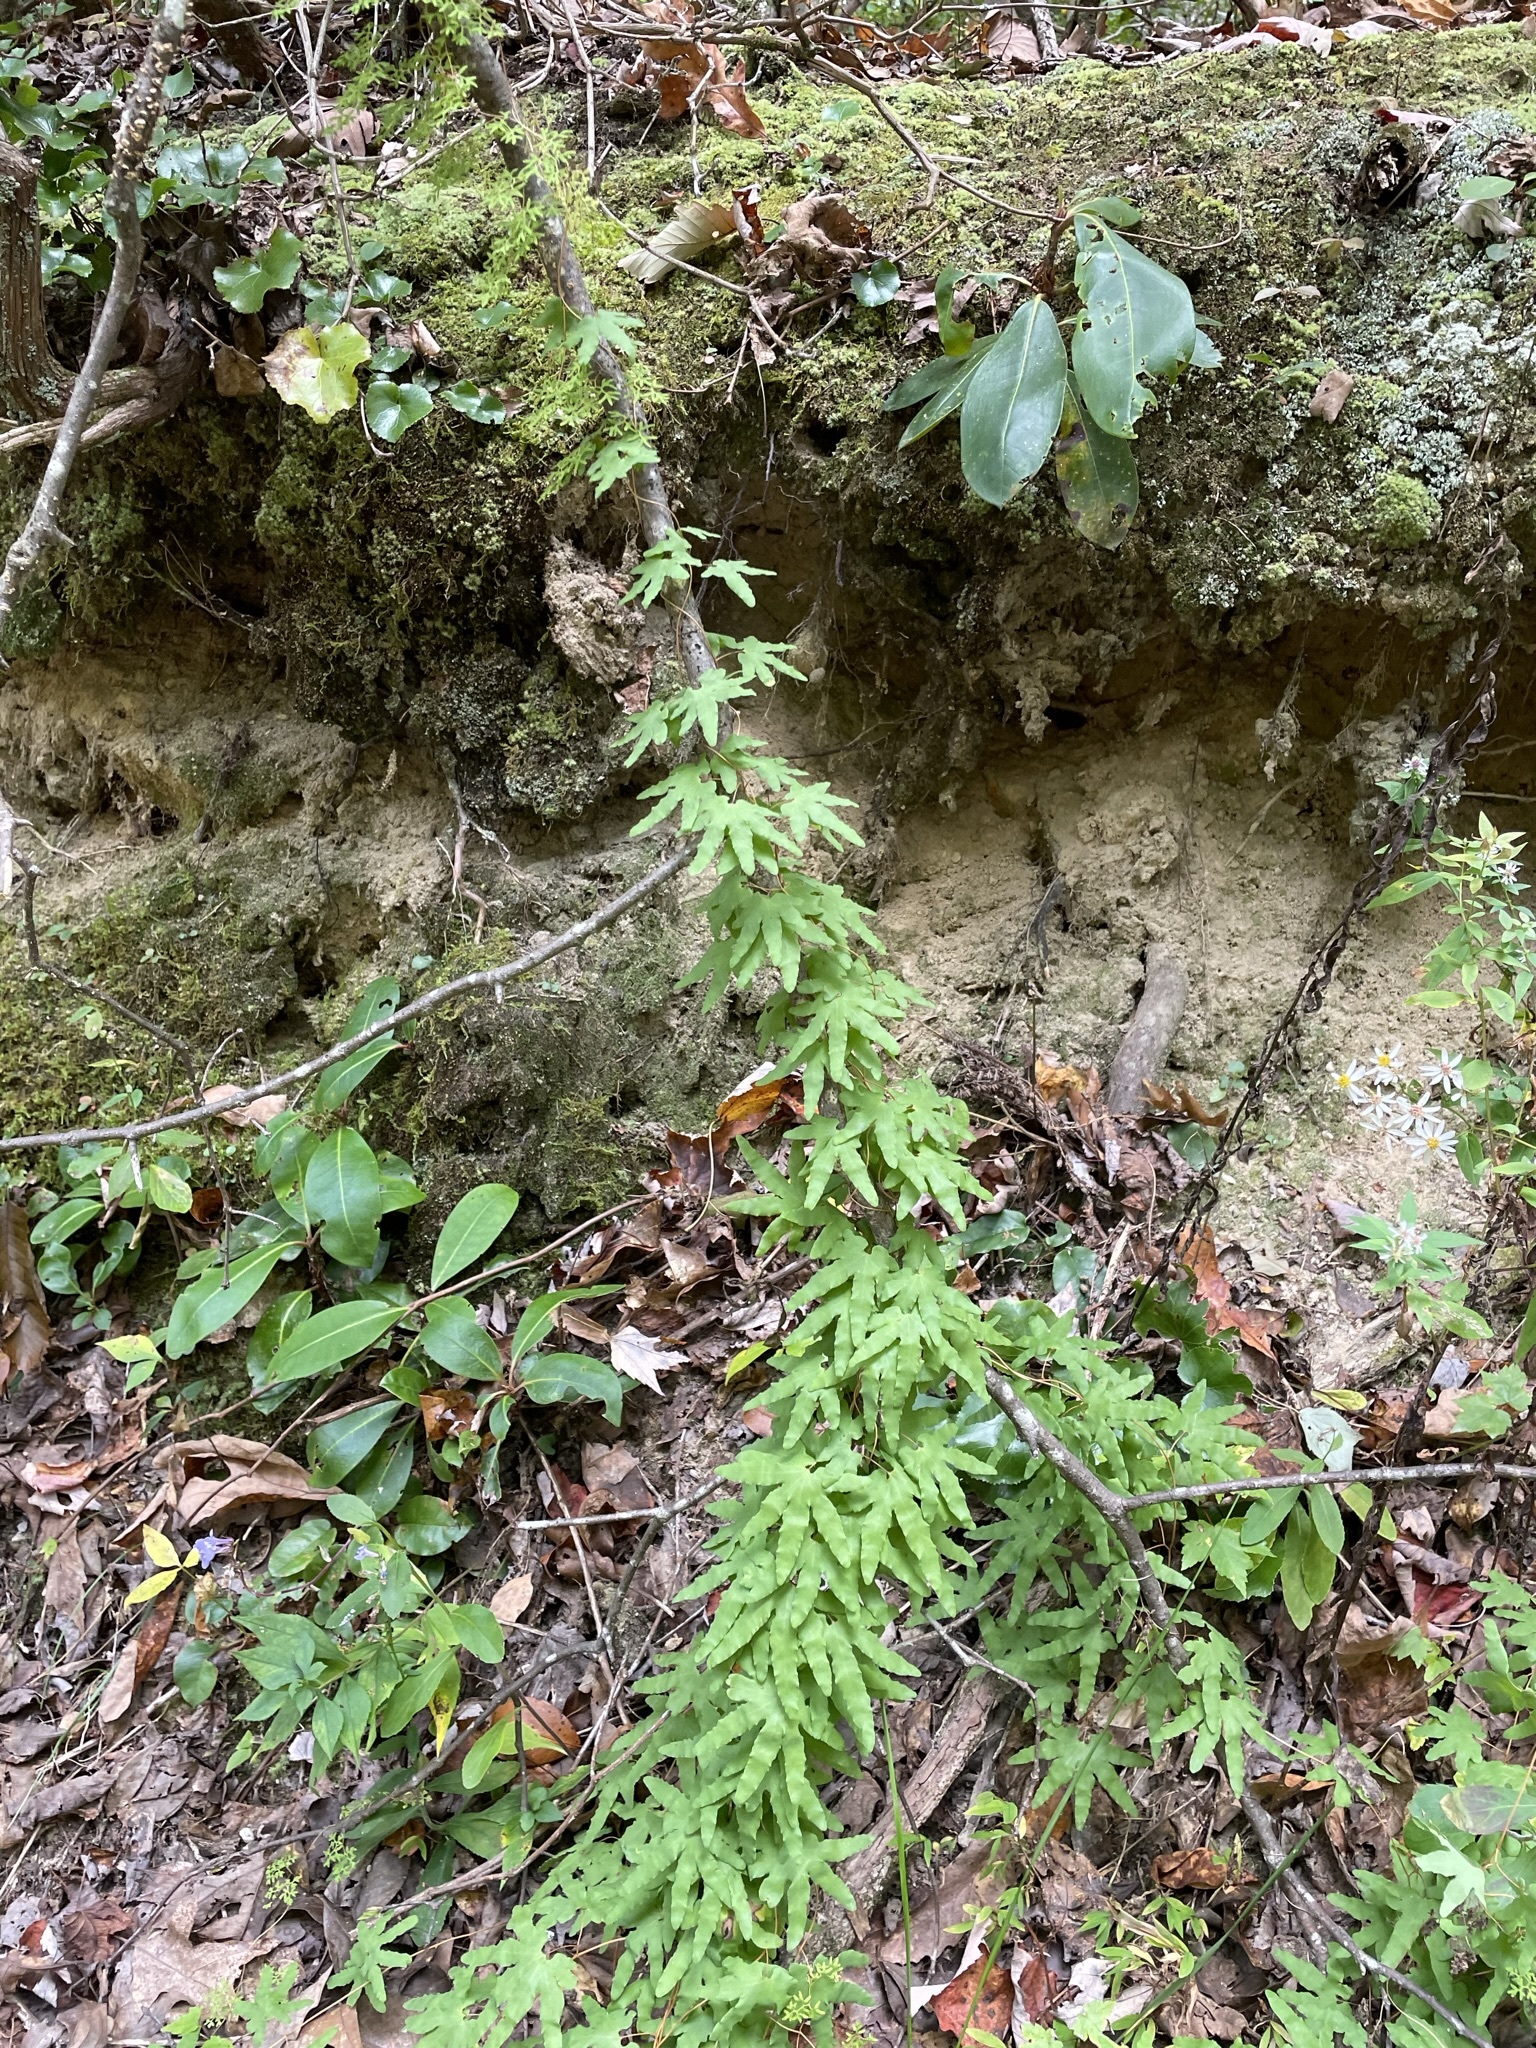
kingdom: Plantae
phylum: Tracheophyta
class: Polypodiopsida
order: Schizaeales
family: Lygodiaceae
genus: Lygodium
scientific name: Lygodium palmatum
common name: American climbing fern
